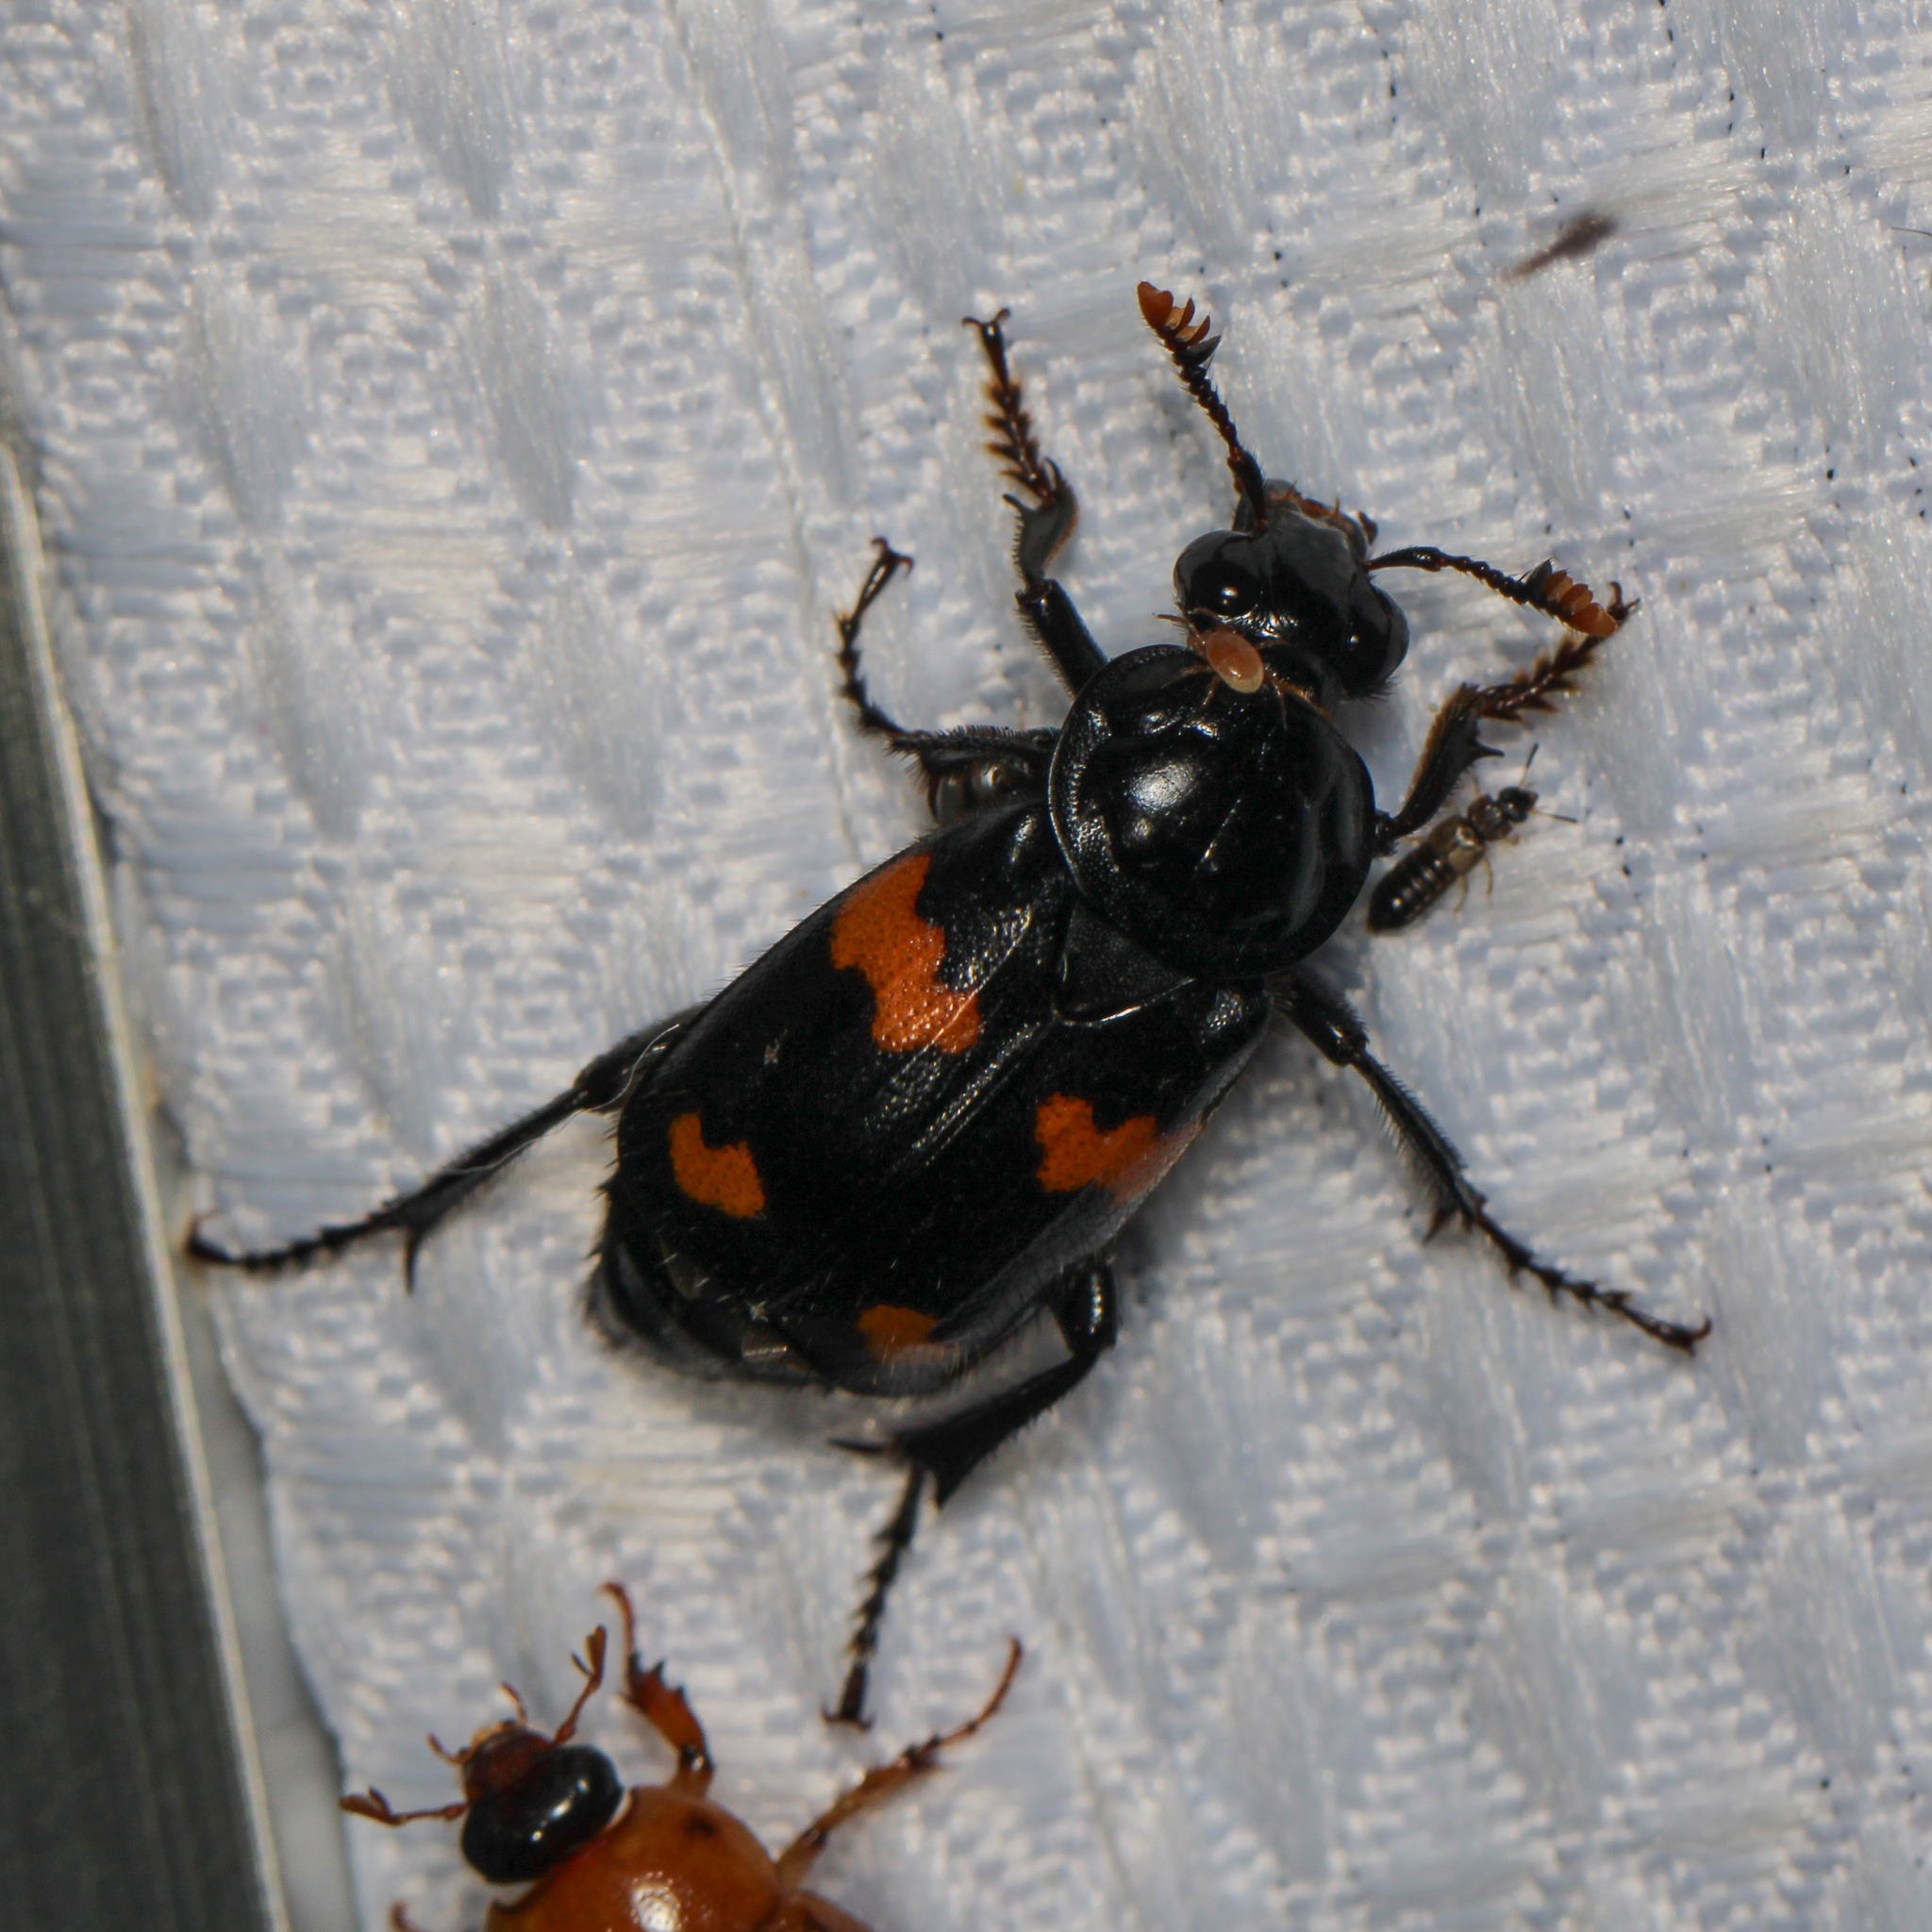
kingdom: Animalia
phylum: Arthropoda
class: Insecta
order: Coleoptera
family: Staphylinidae
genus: Nicrophorus
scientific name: Nicrophorus orbicollis
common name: Roundneck sexton beetle
